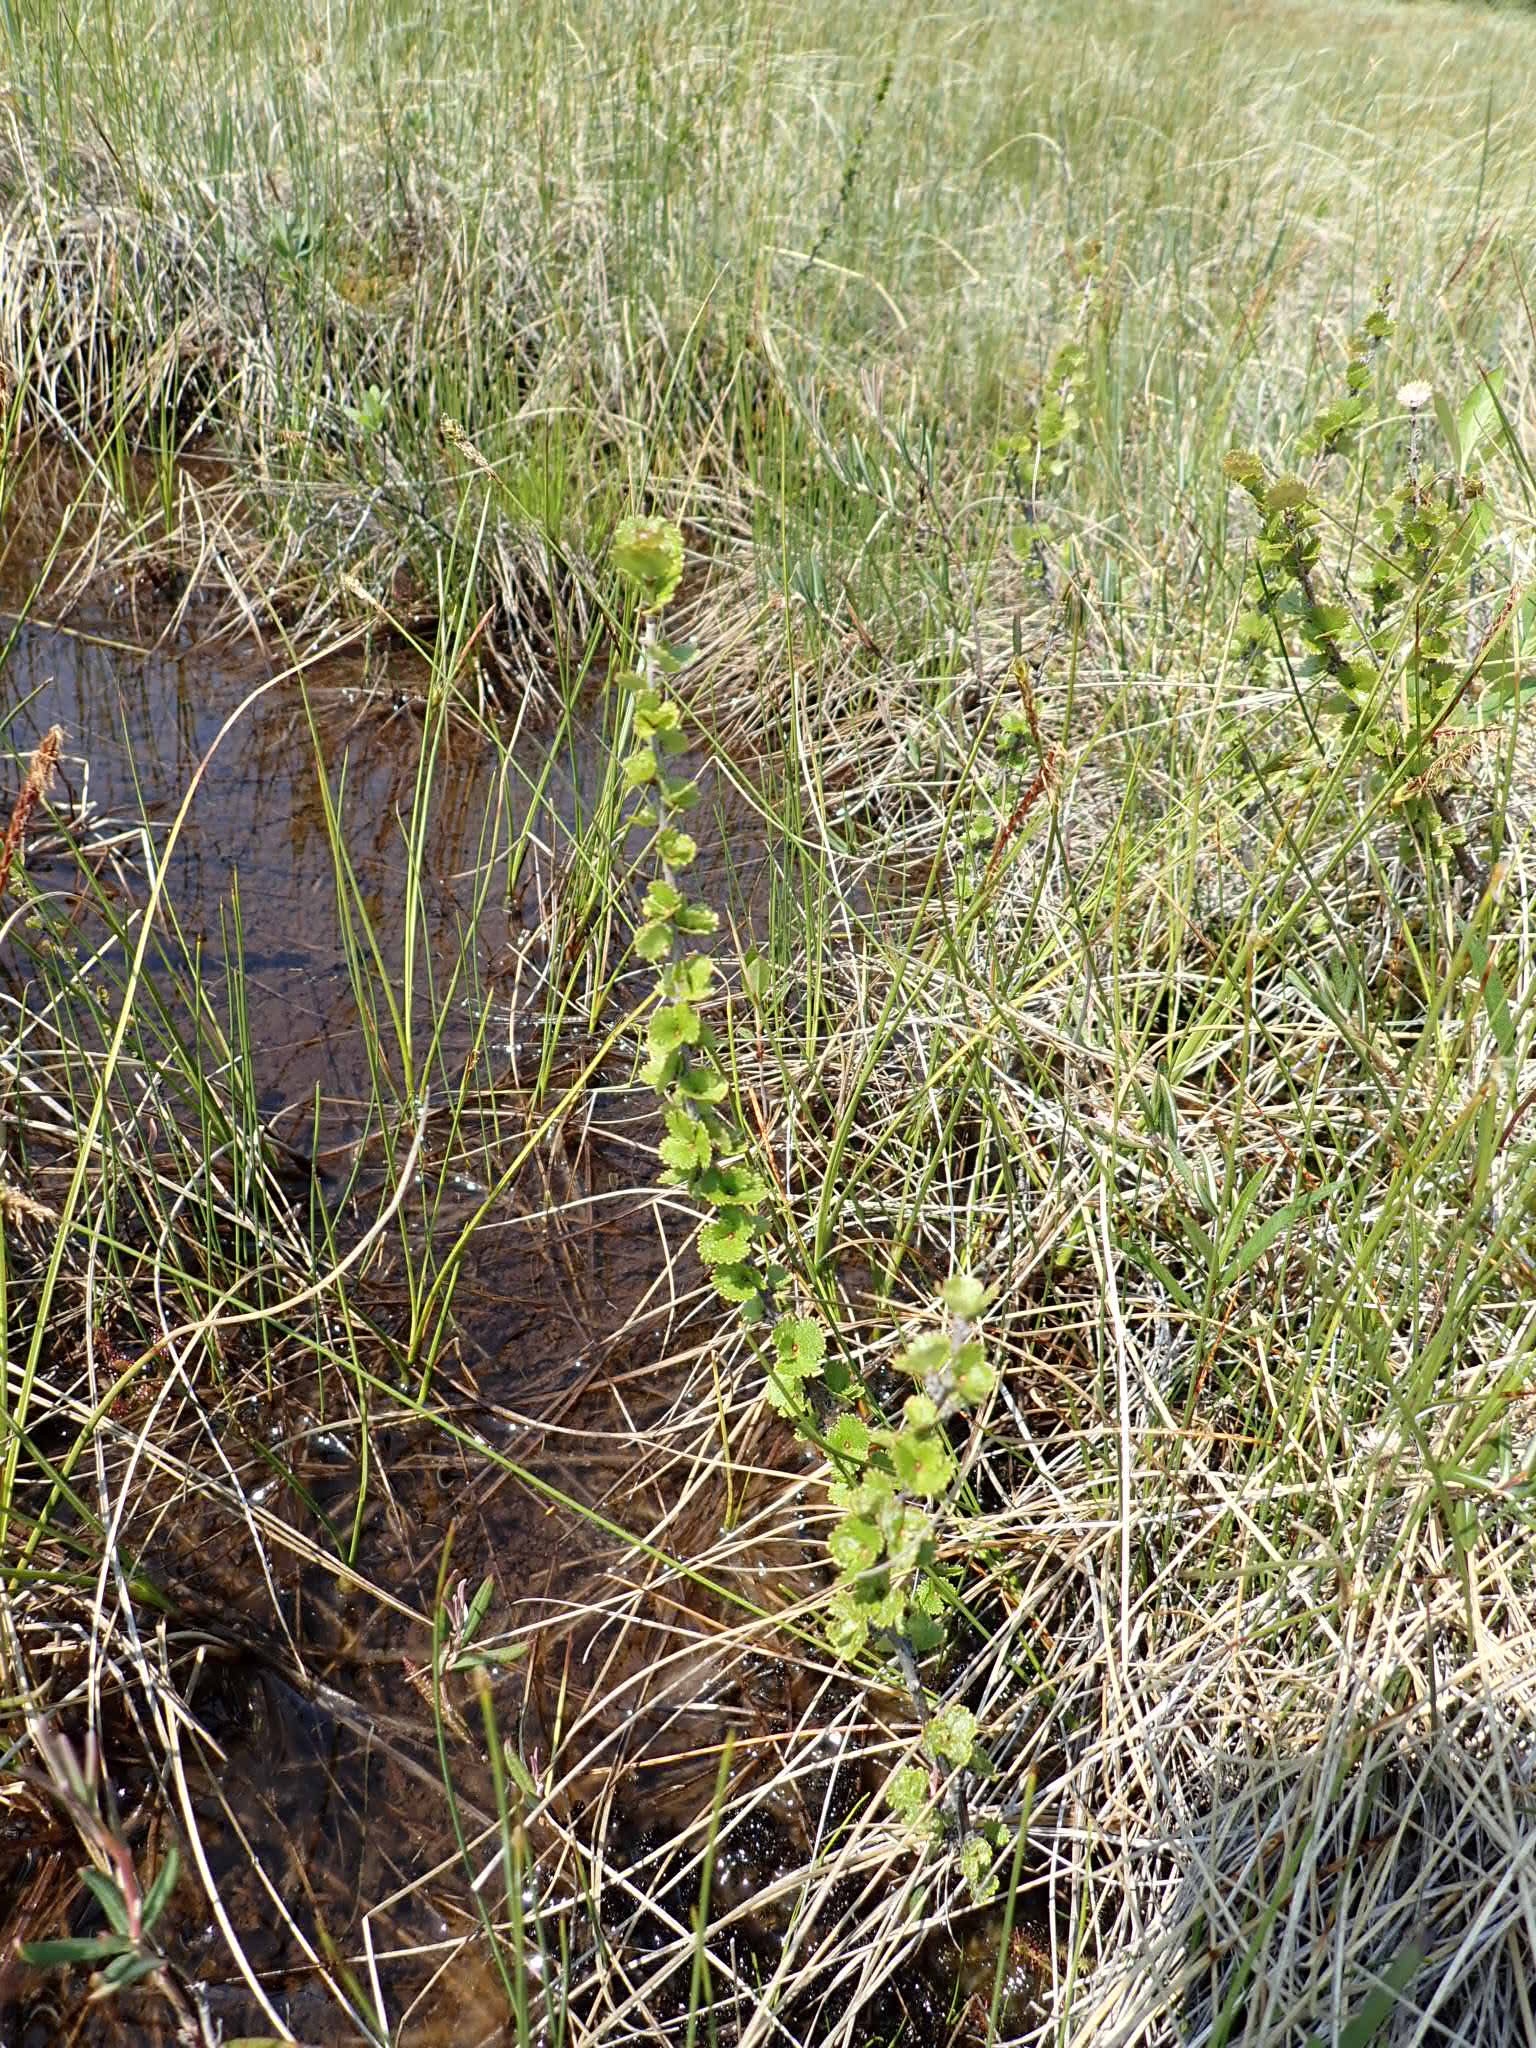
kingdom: Plantae
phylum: Tracheophyta
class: Magnoliopsida
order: Fagales
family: Betulaceae
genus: Betula
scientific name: Betula michauxii
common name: Newfoundland dwarf birch
